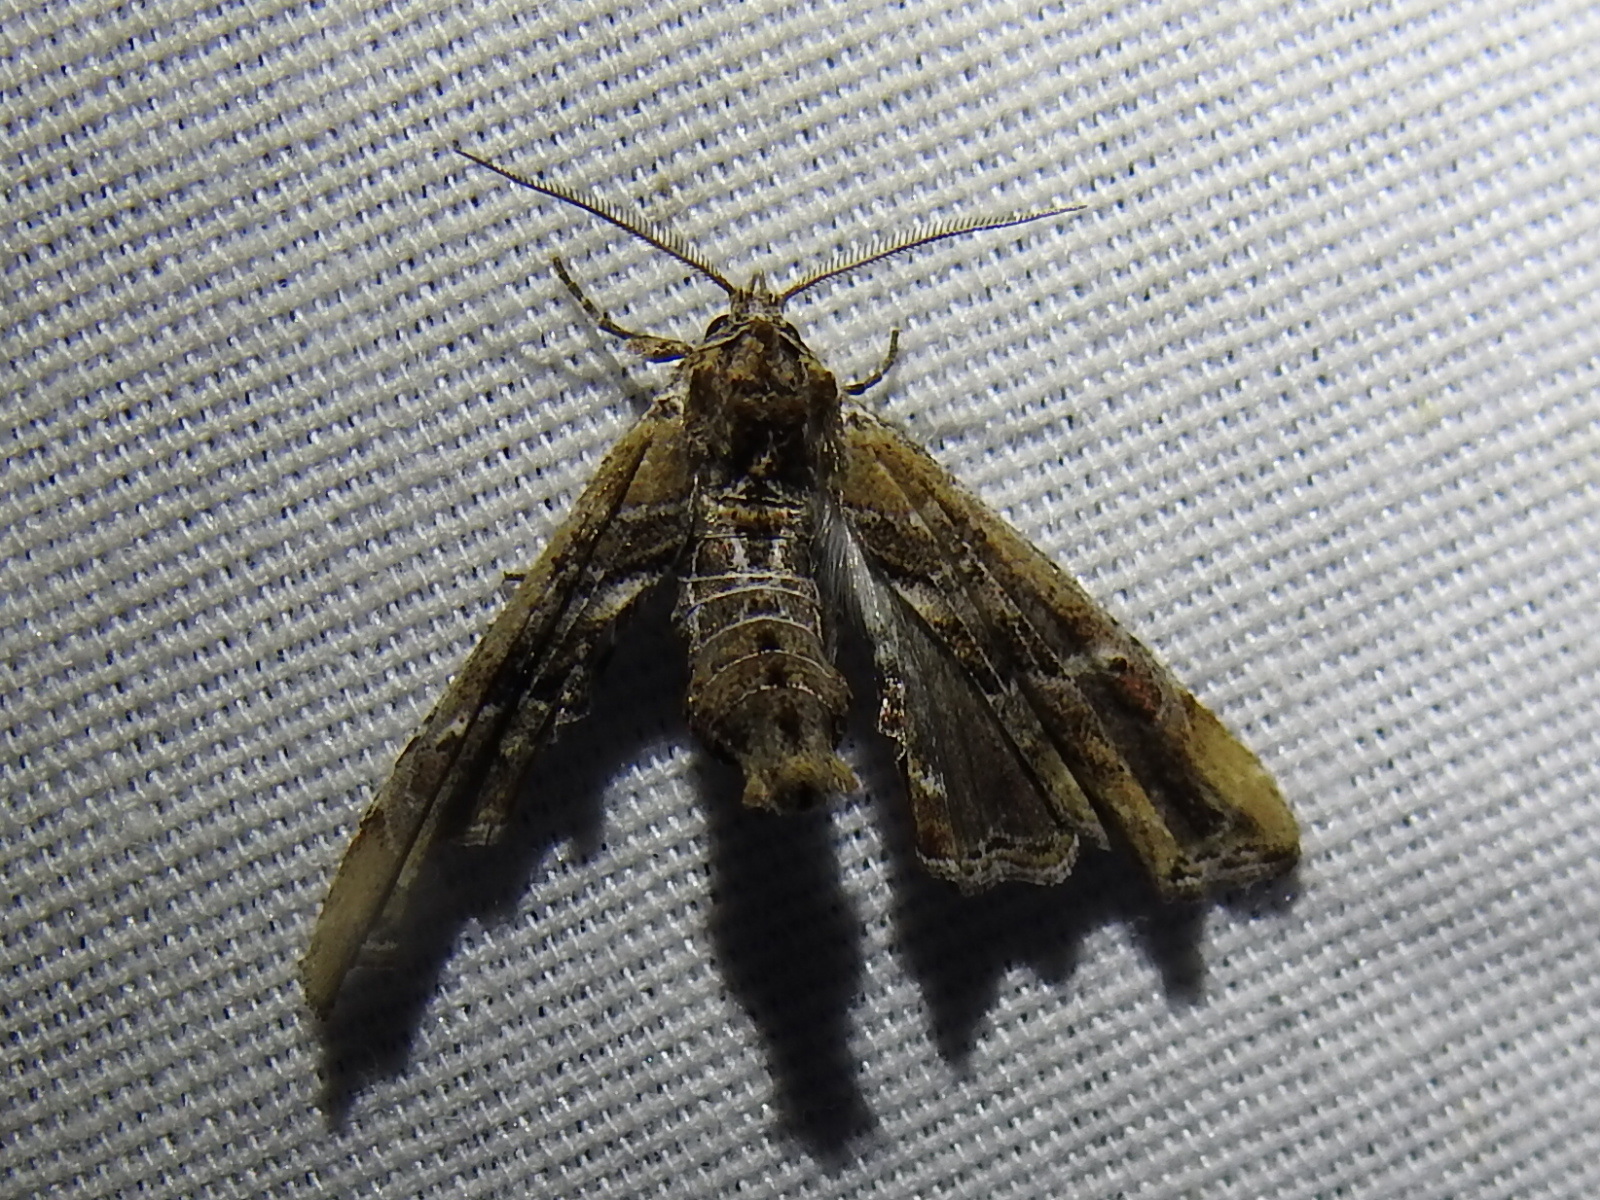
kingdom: Animalia
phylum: Arthropoda
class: Insecta
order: Lepidoptera
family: Euteliidae
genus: Marathyssa
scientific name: Marathyssa basalis
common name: Light marathyssa moth
